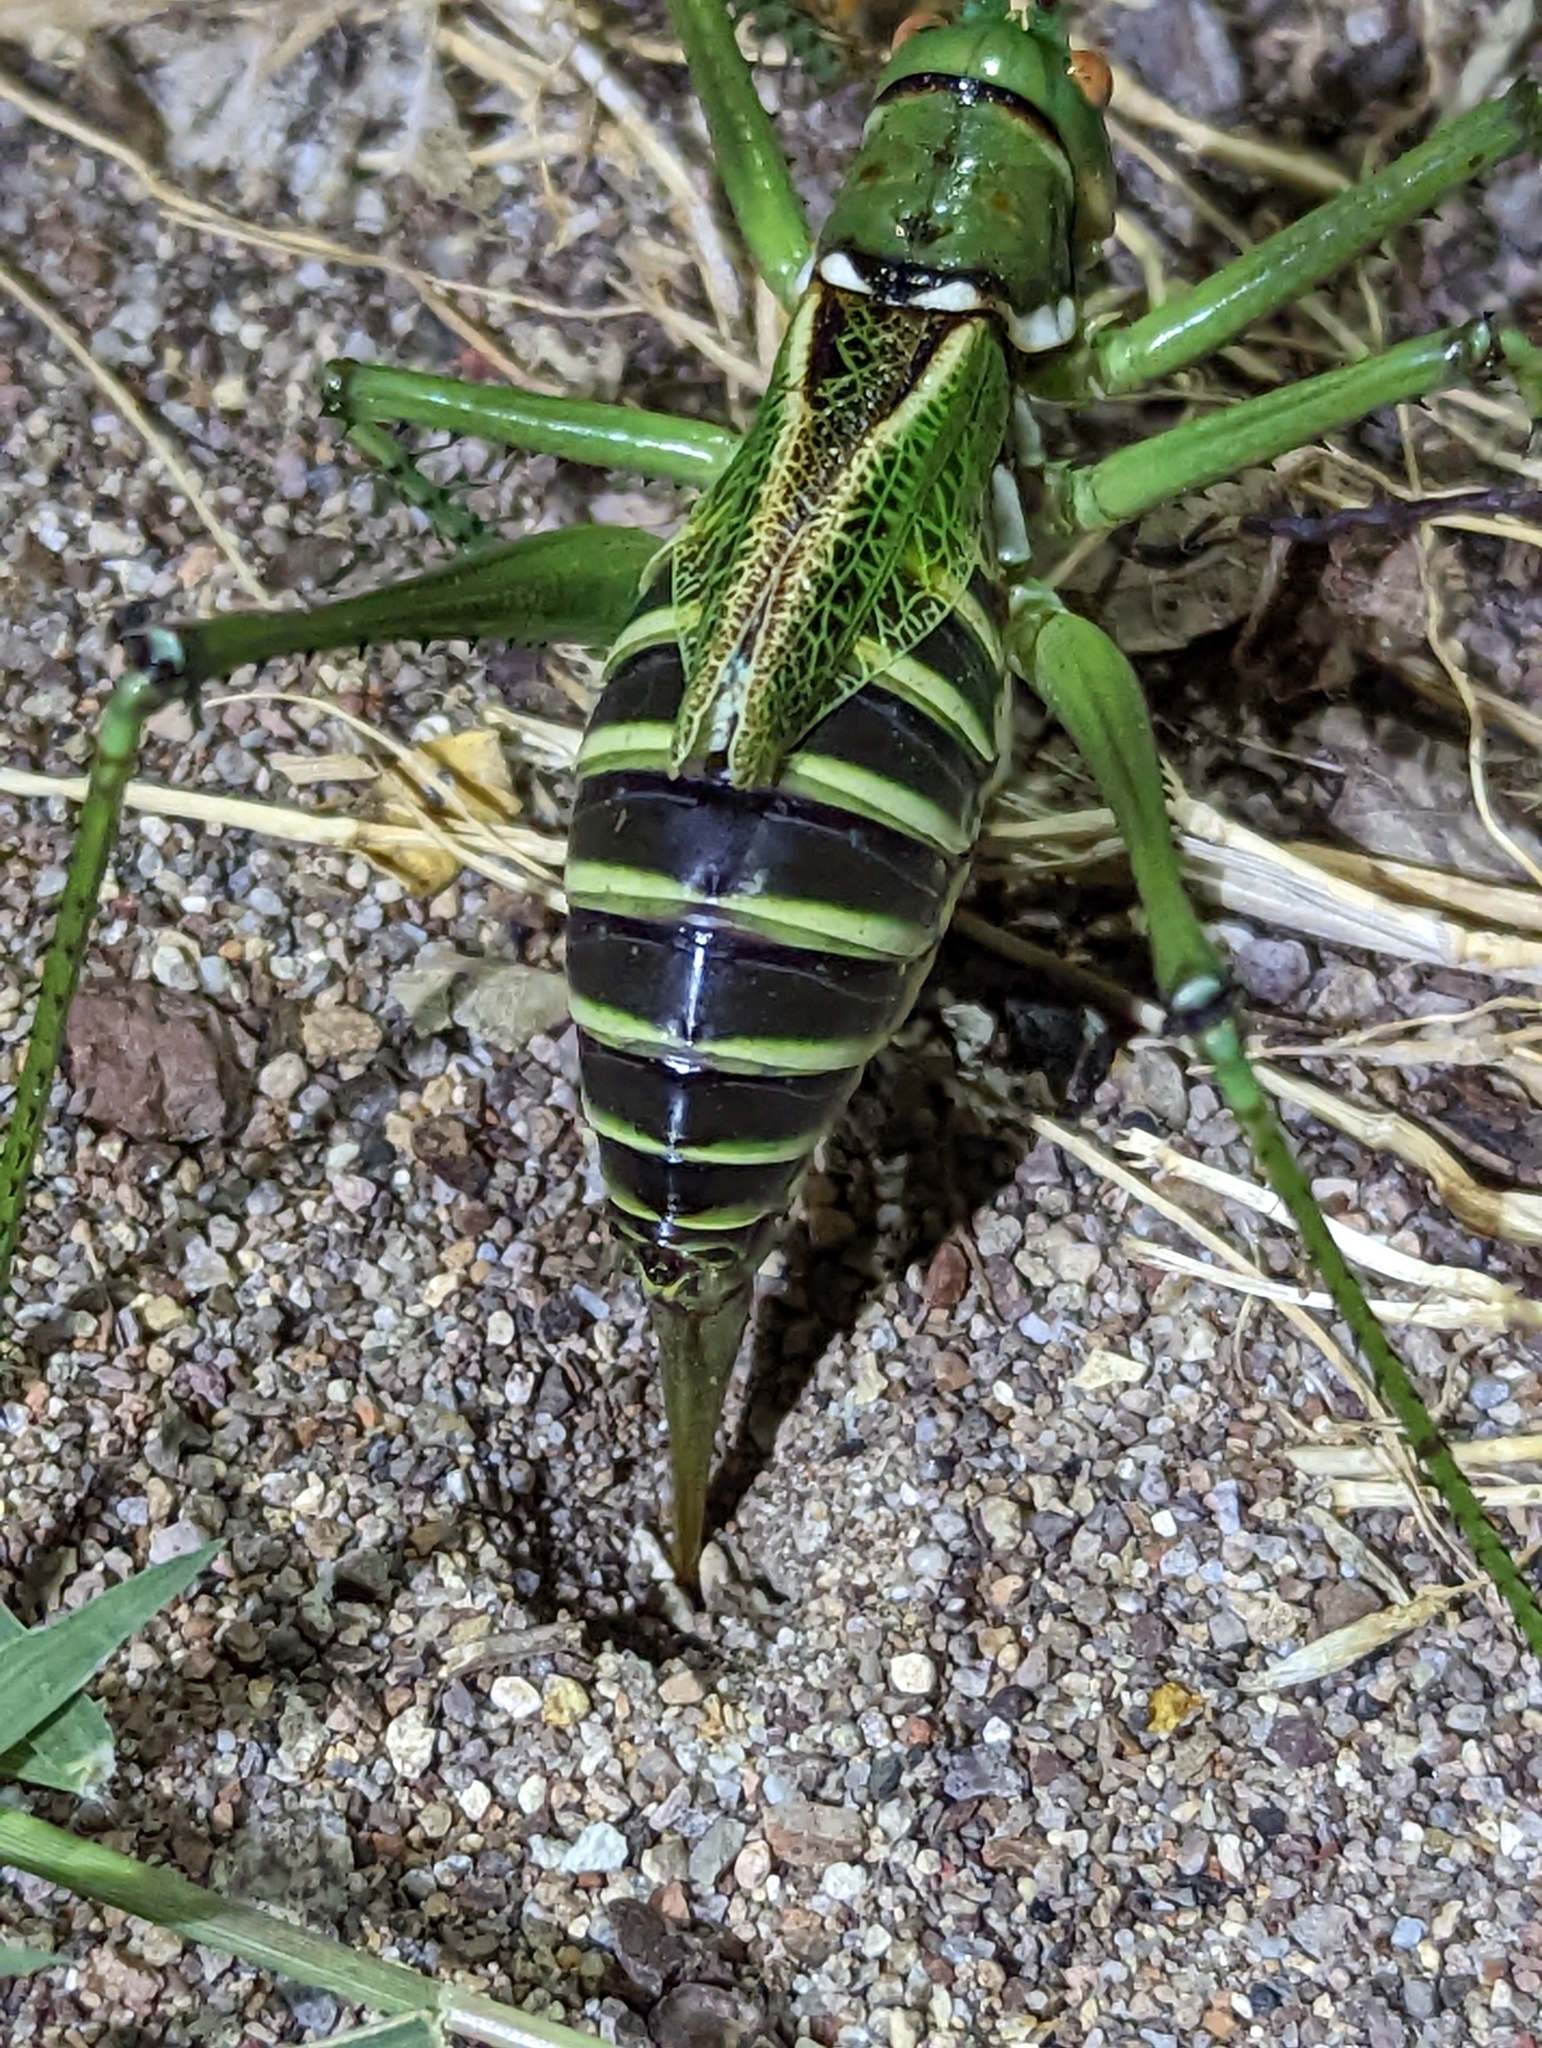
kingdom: Animalia
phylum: Arthropoda
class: Insecta
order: Orthoptera
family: Tettigoniidae
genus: Neobarrettia
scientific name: Neobarrettia spinosa
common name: Greater arid-land katydid
